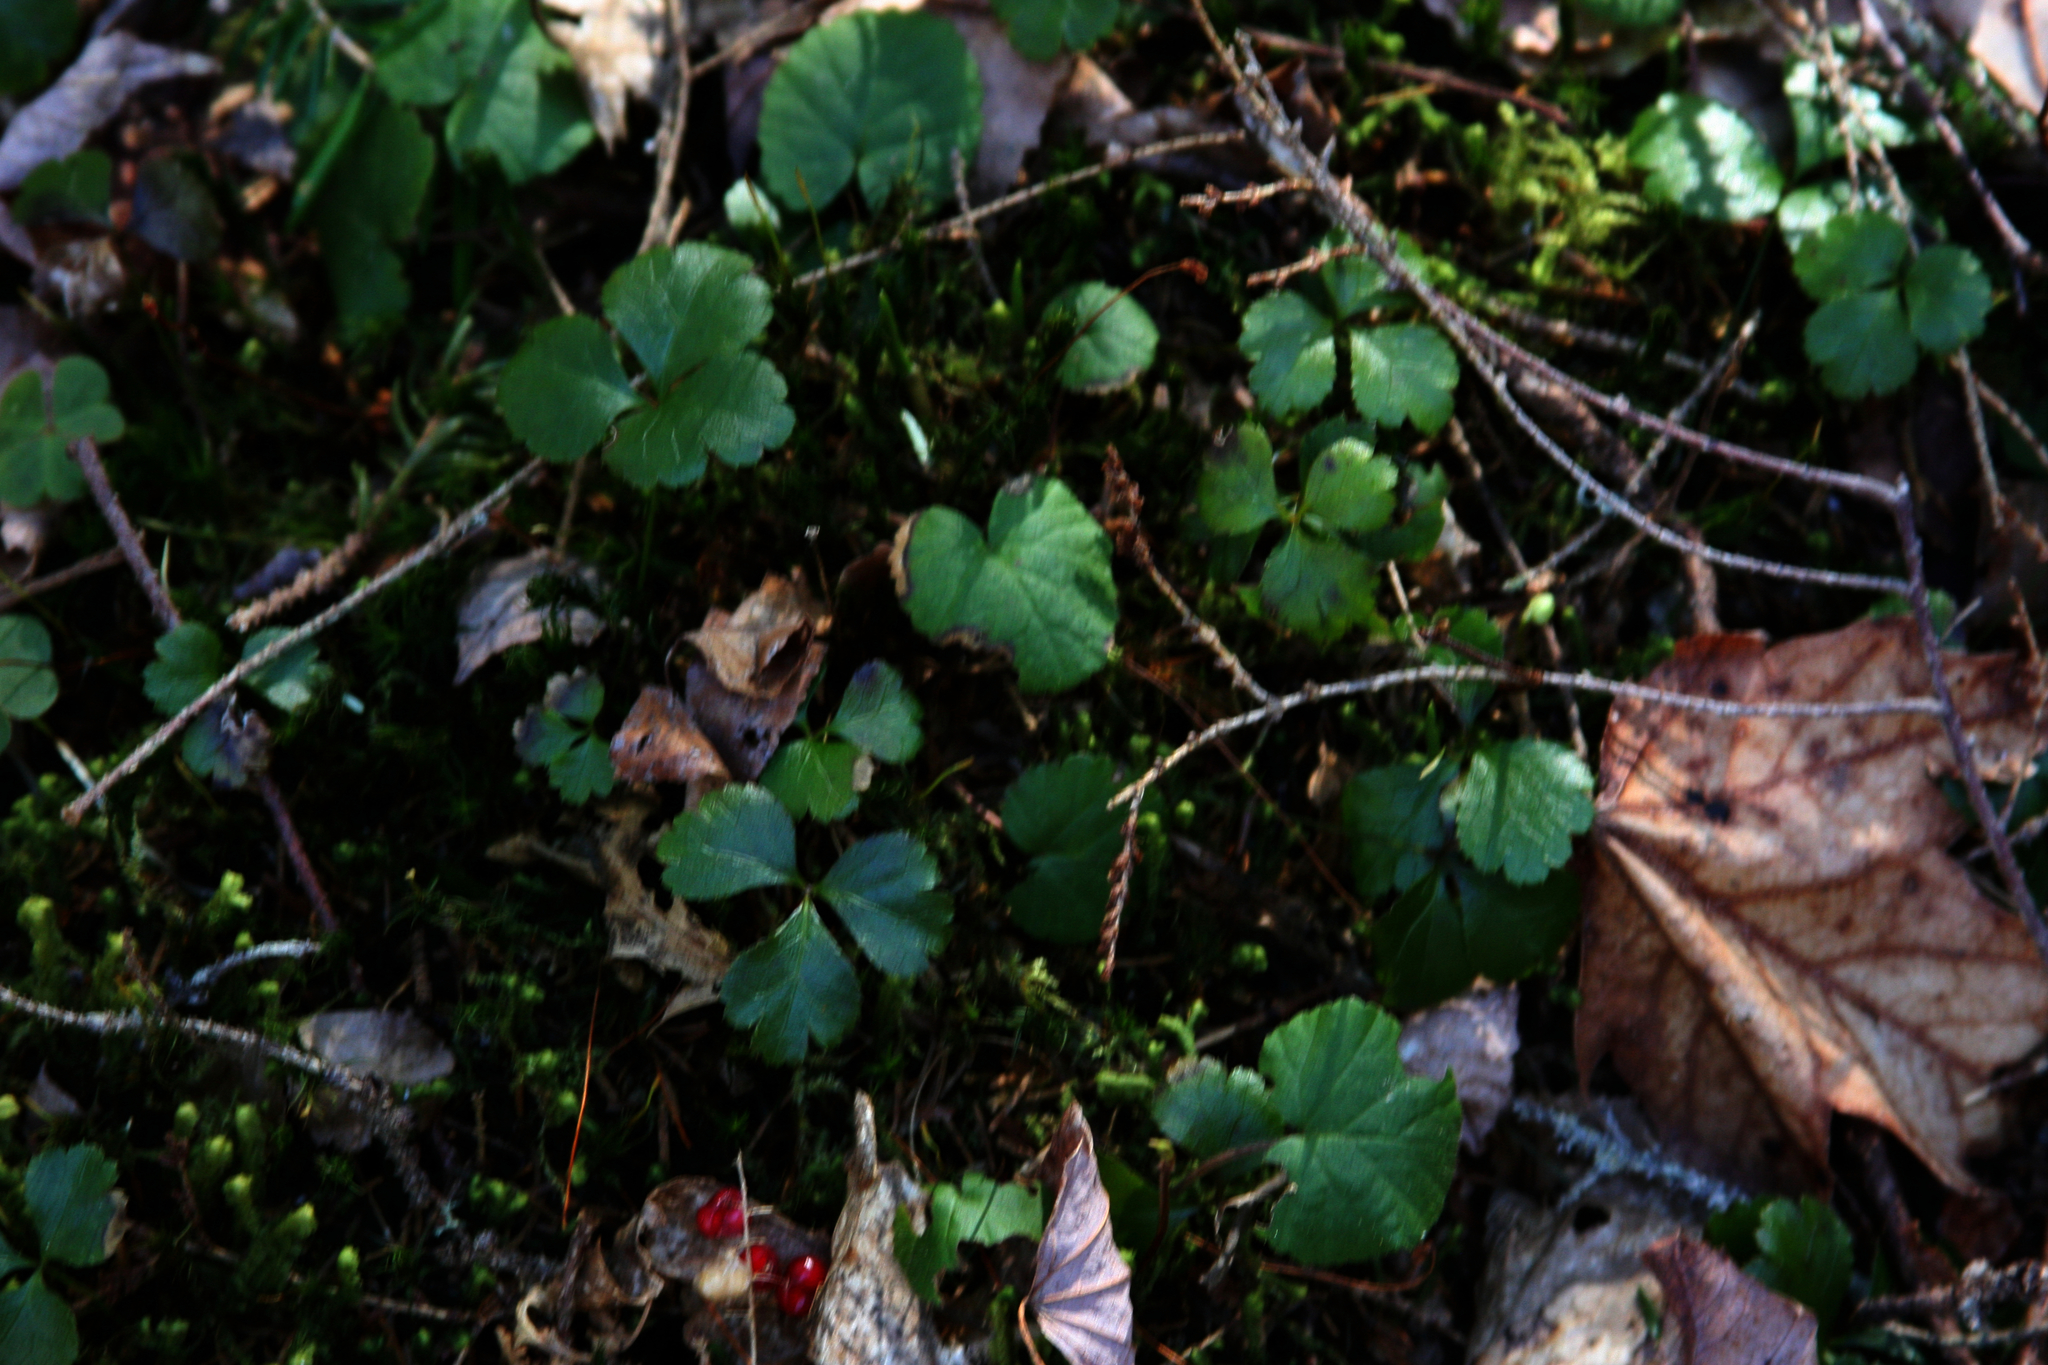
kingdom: Plantae
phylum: Tracheophyta
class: Magnoliopsida
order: Ranunculales
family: Ranunculaceae
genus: Coptis
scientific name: Coptis trifolia
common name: Canker-root
